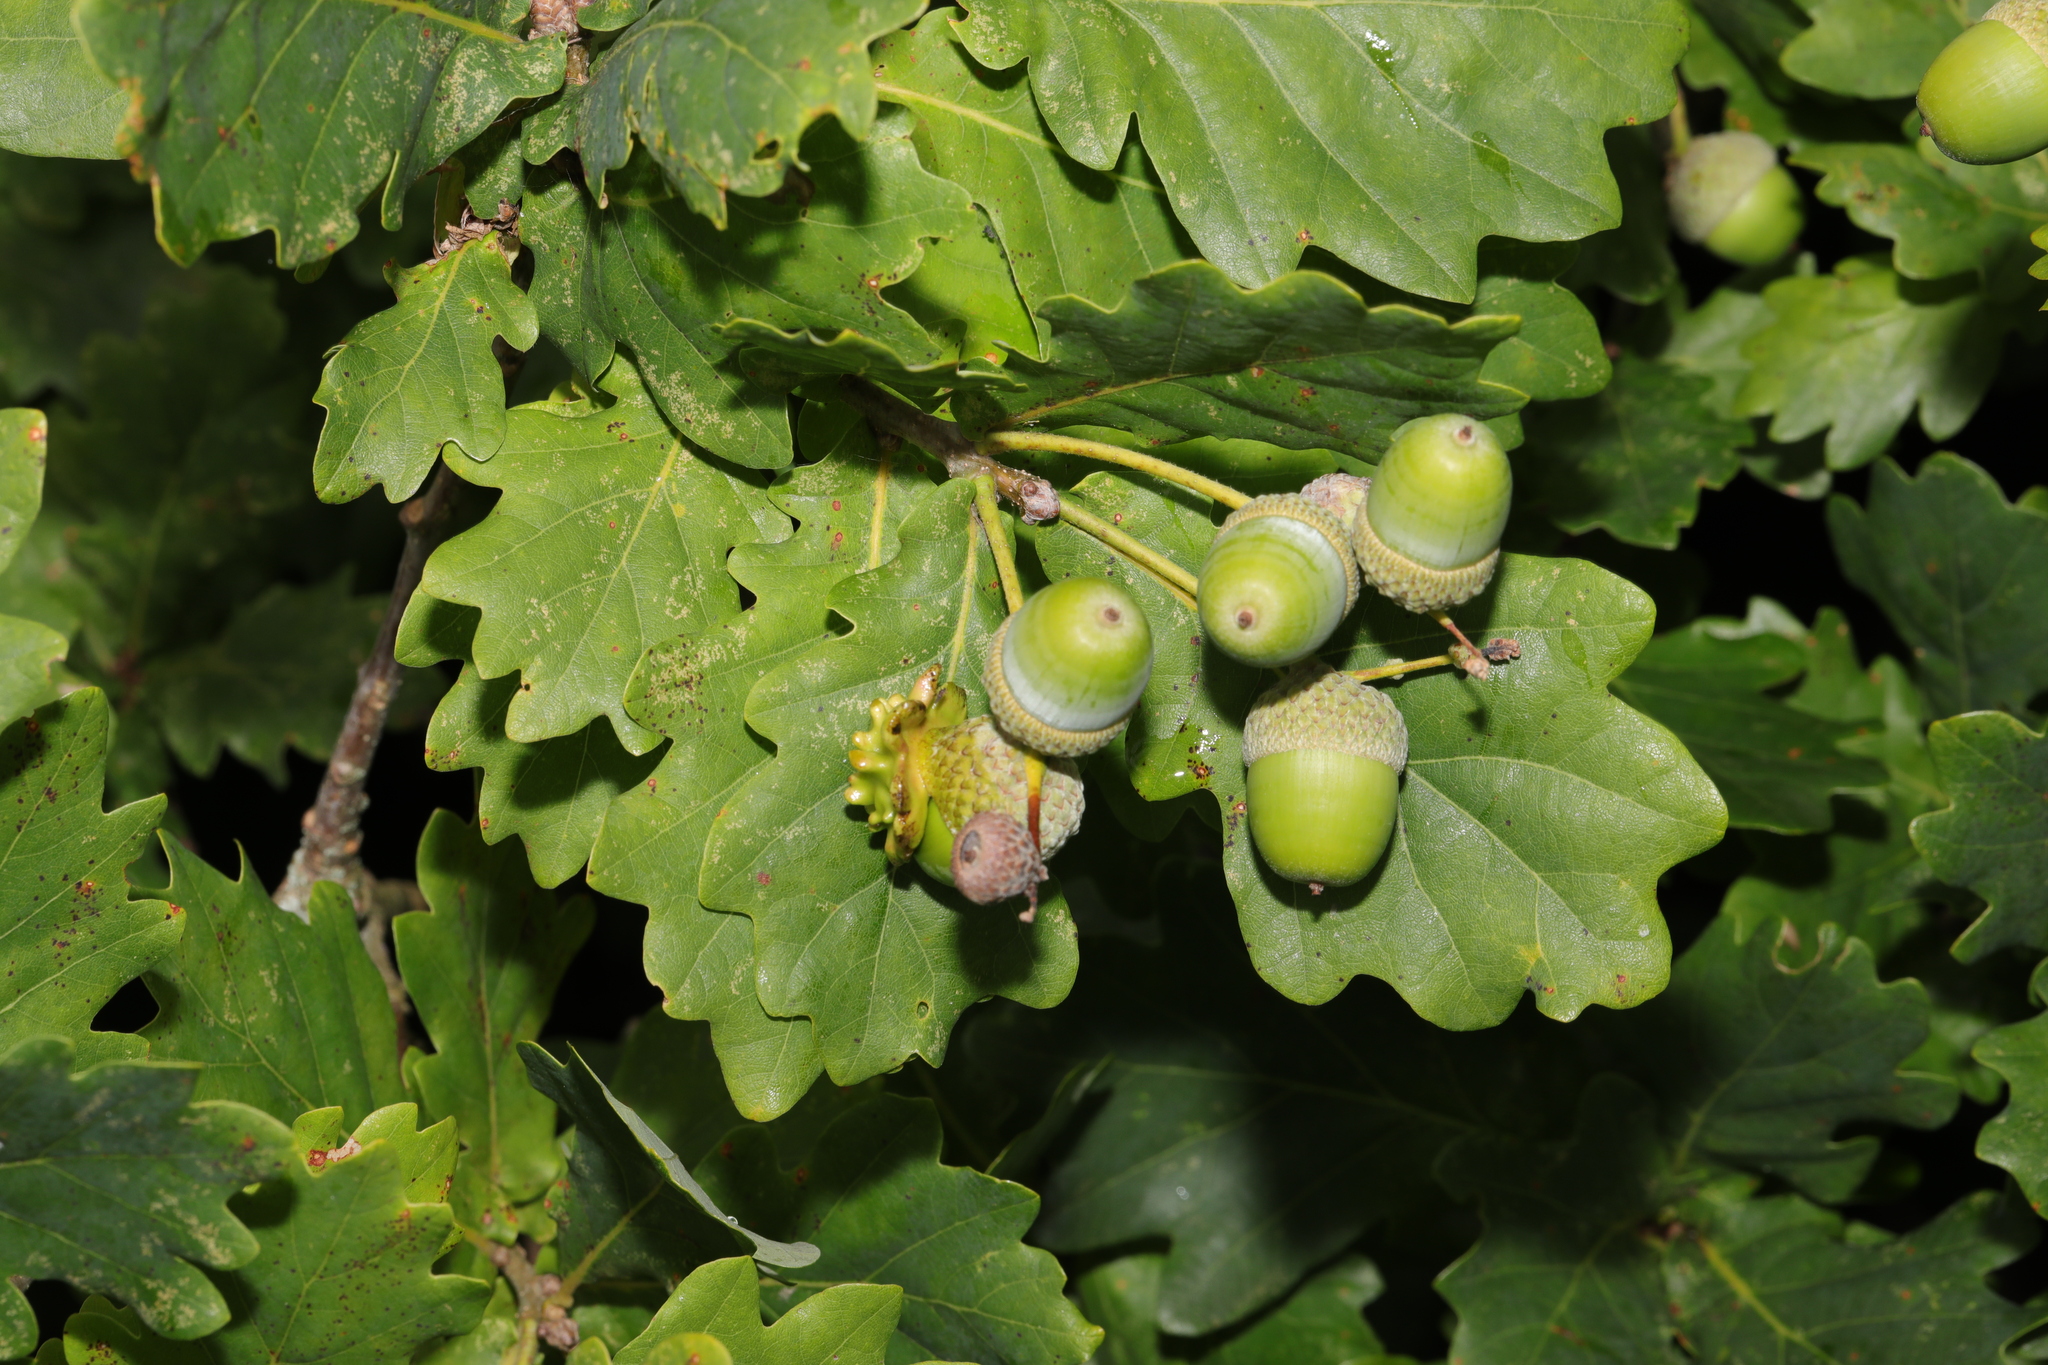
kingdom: Plantae
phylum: Tracheophyta
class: Magnoliopsida
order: Fagales
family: Fagaceae
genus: Quercus
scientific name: Quercus robur
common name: Pedunculate oak
